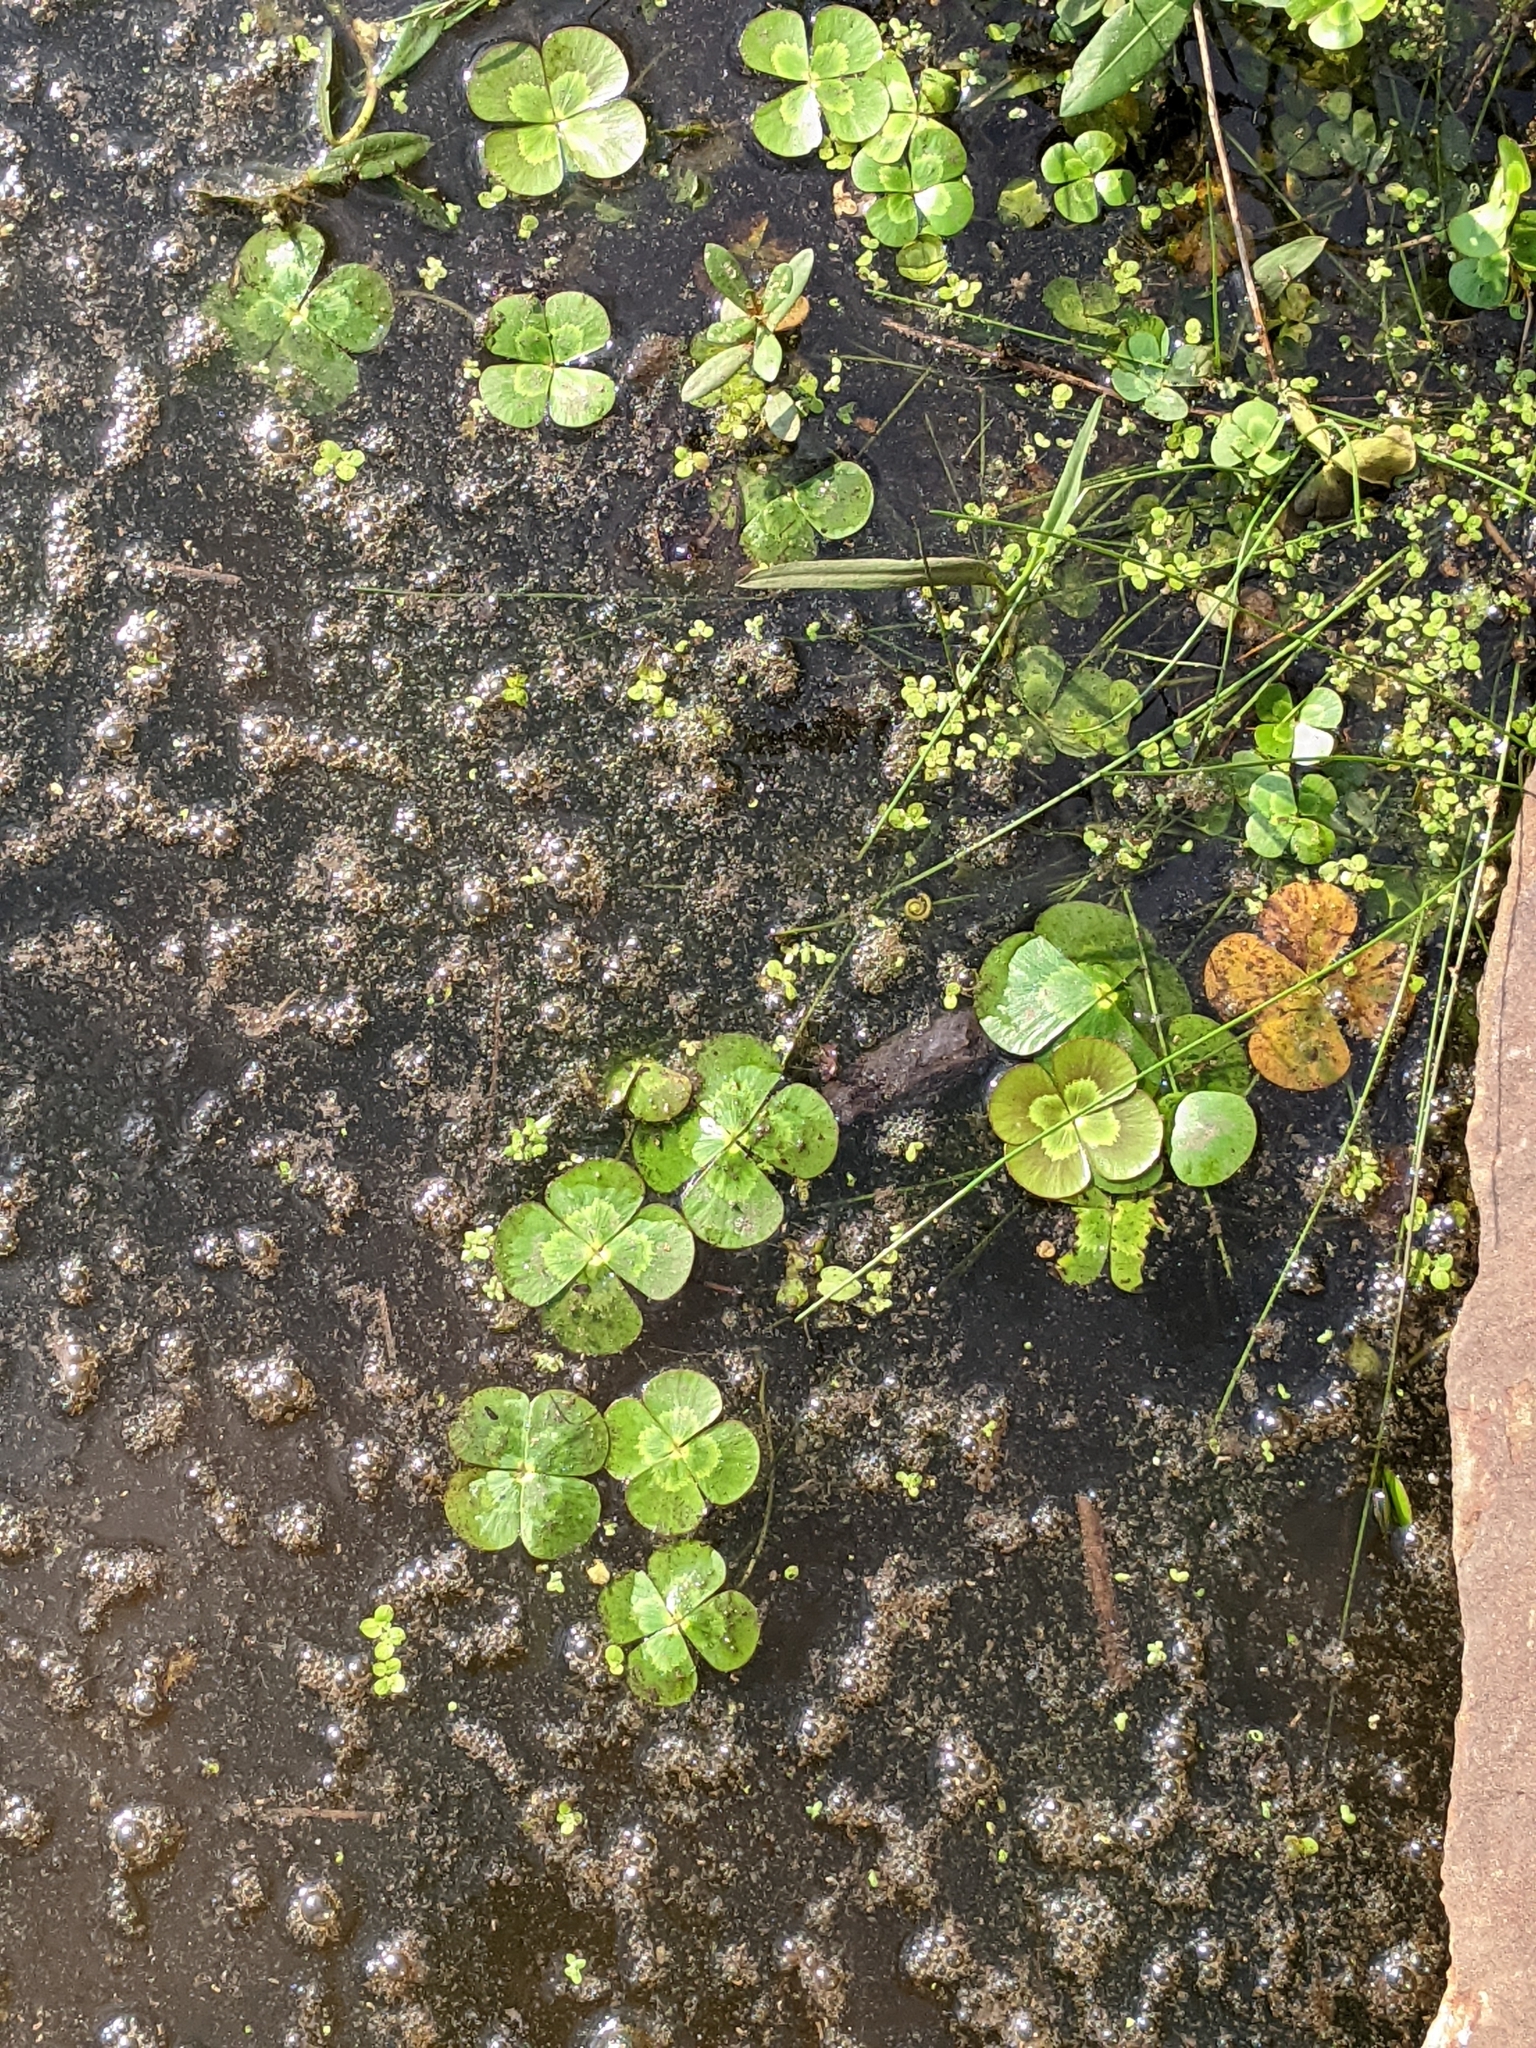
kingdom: Plantae
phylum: Tracheophyta
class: Polypodiopsida
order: Salviniales
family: Marsileaceae
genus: Marsilea
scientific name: Marsilea mutica
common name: Australian water-clover
